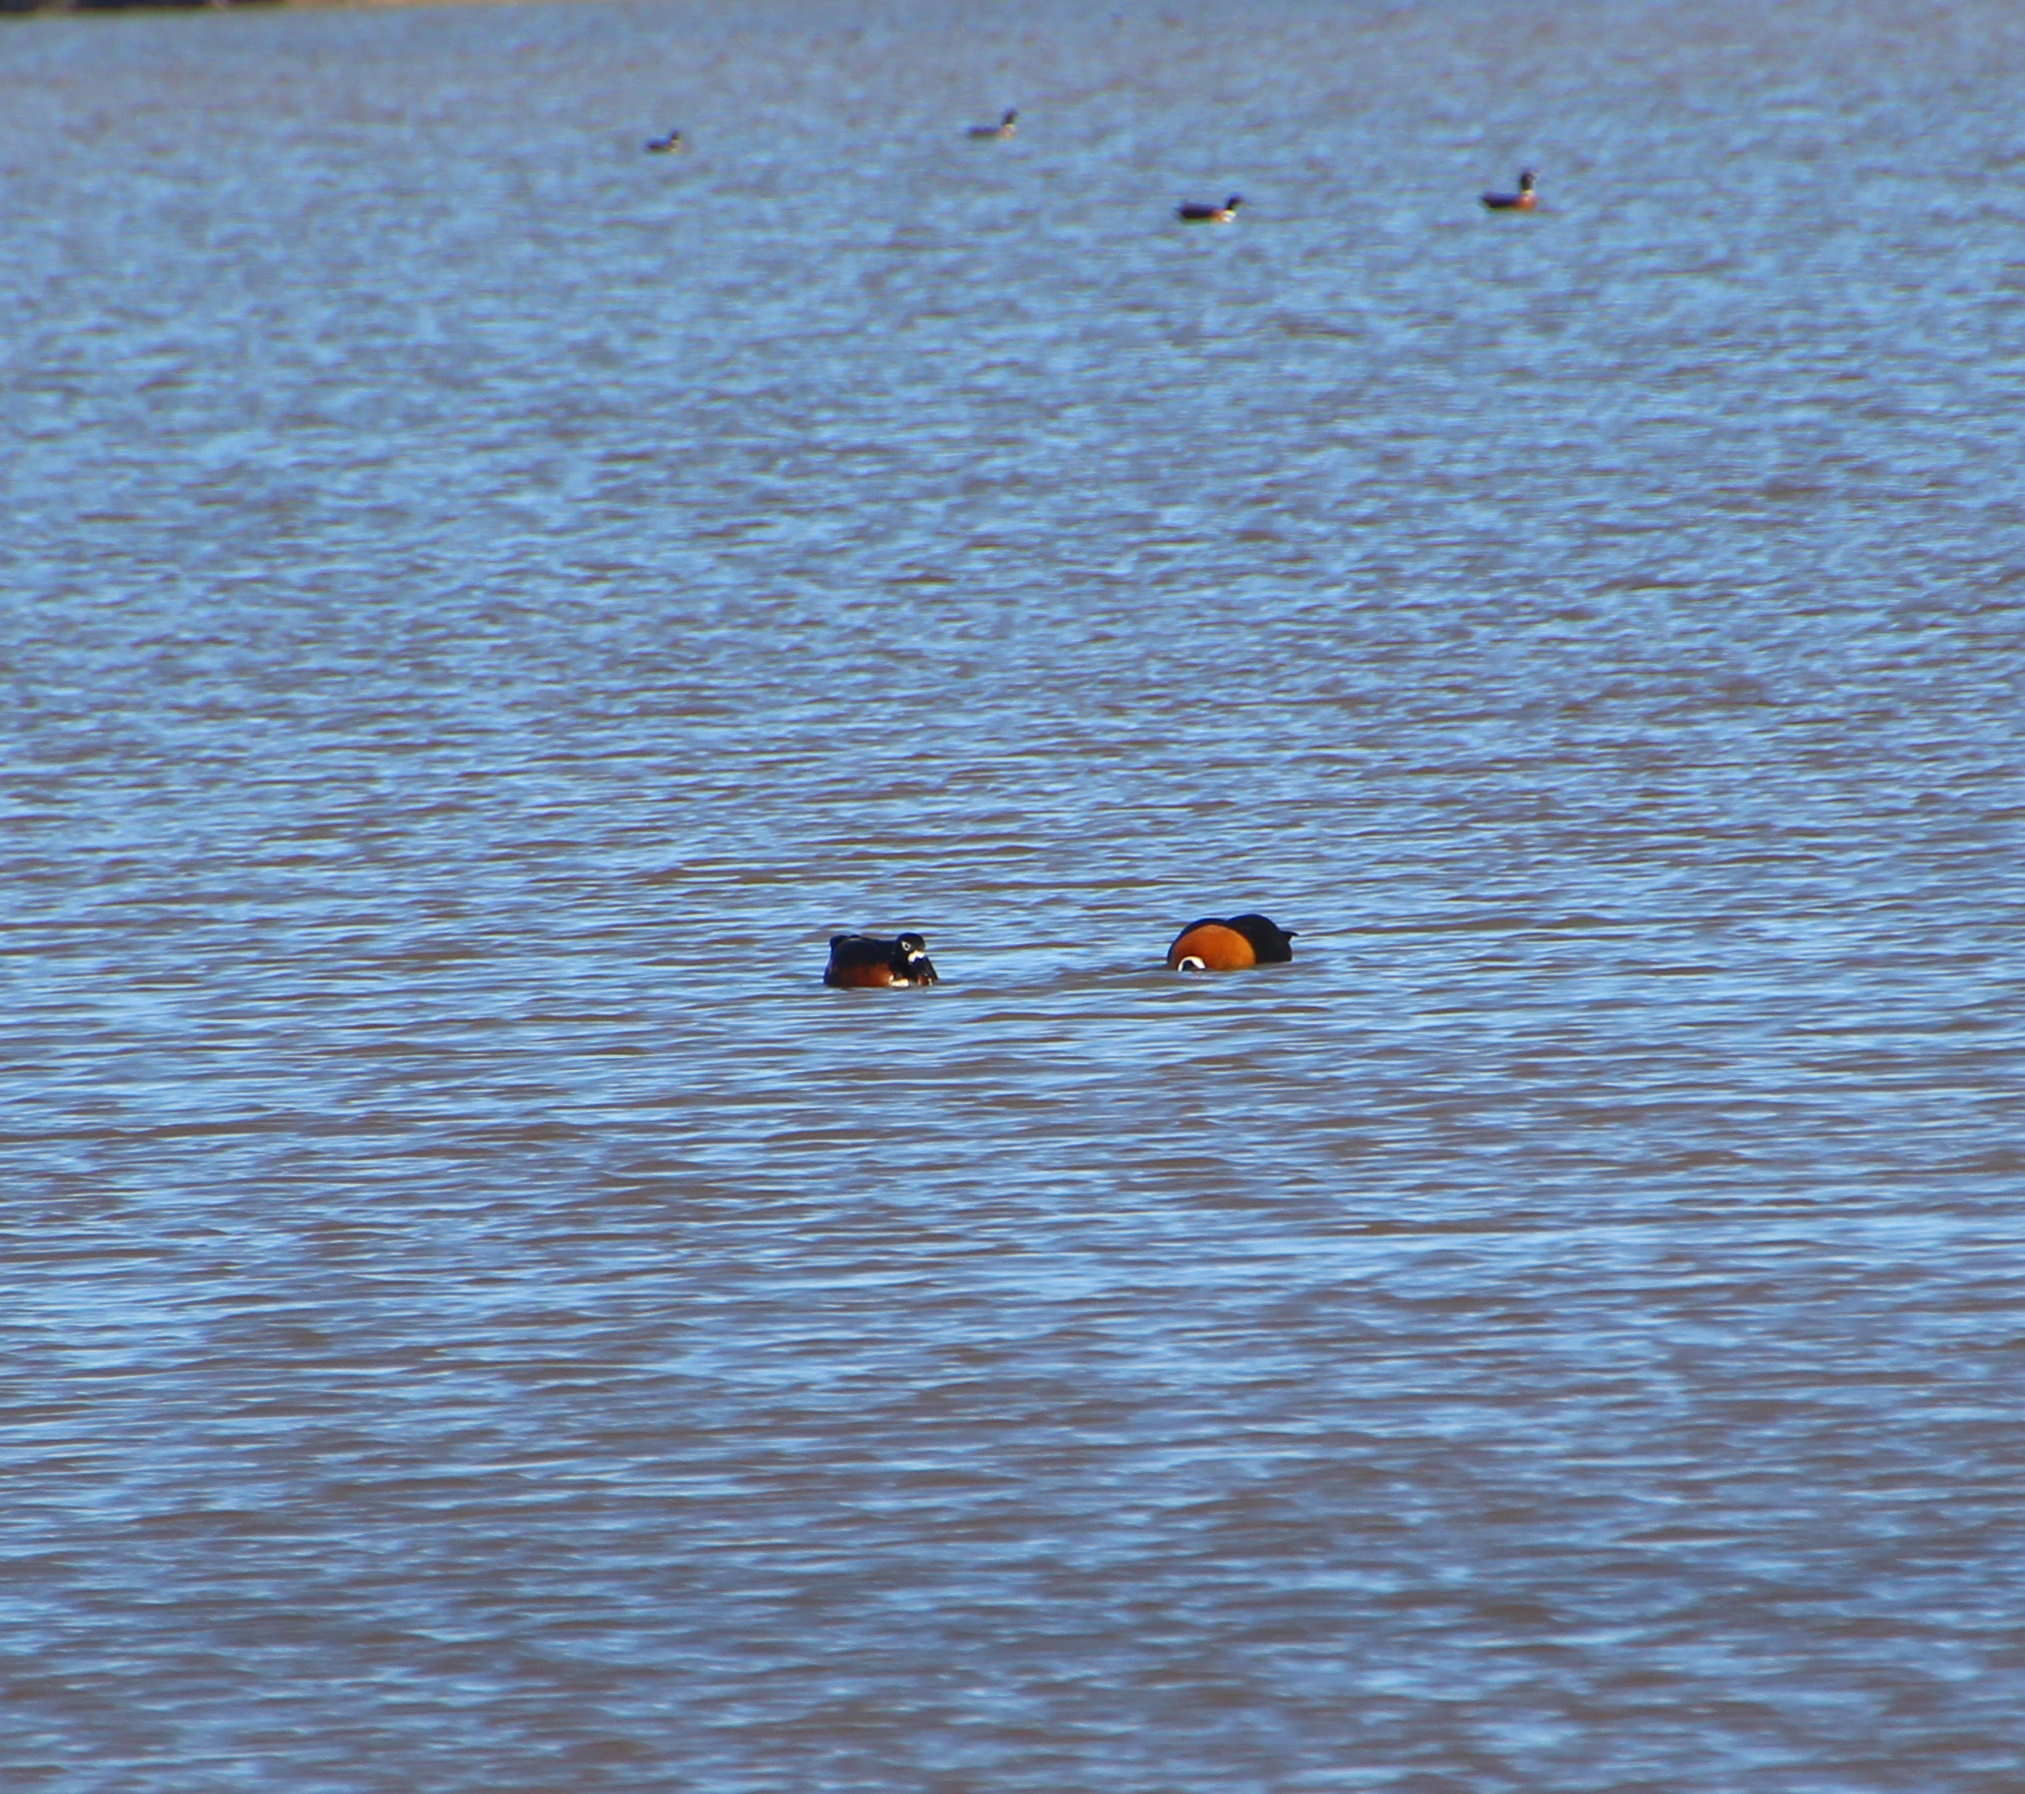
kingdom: Animalia
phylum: Chordata
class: Aves
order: Anseriformes
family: Anatidae
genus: Tadorna
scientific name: Tadorna tadornoides
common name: Australian shelduck
